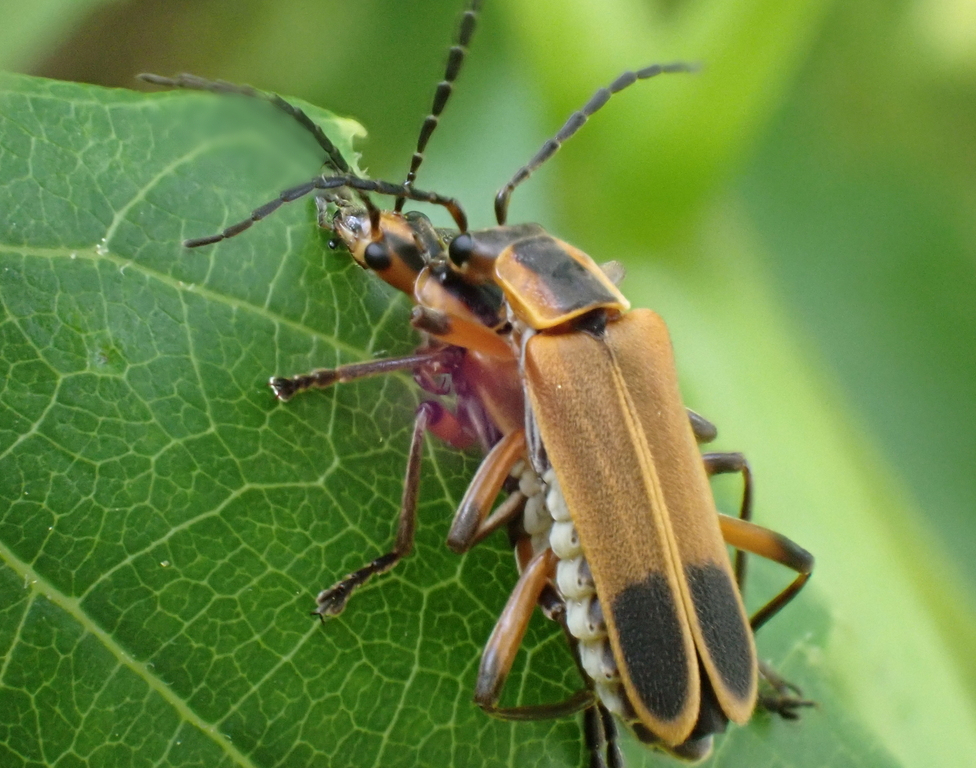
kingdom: Animalia
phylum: Arthropoda
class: Insecta
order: Coleoptera
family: Cantharidae
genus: Chauliognathus
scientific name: Chauliognathus marginatus
